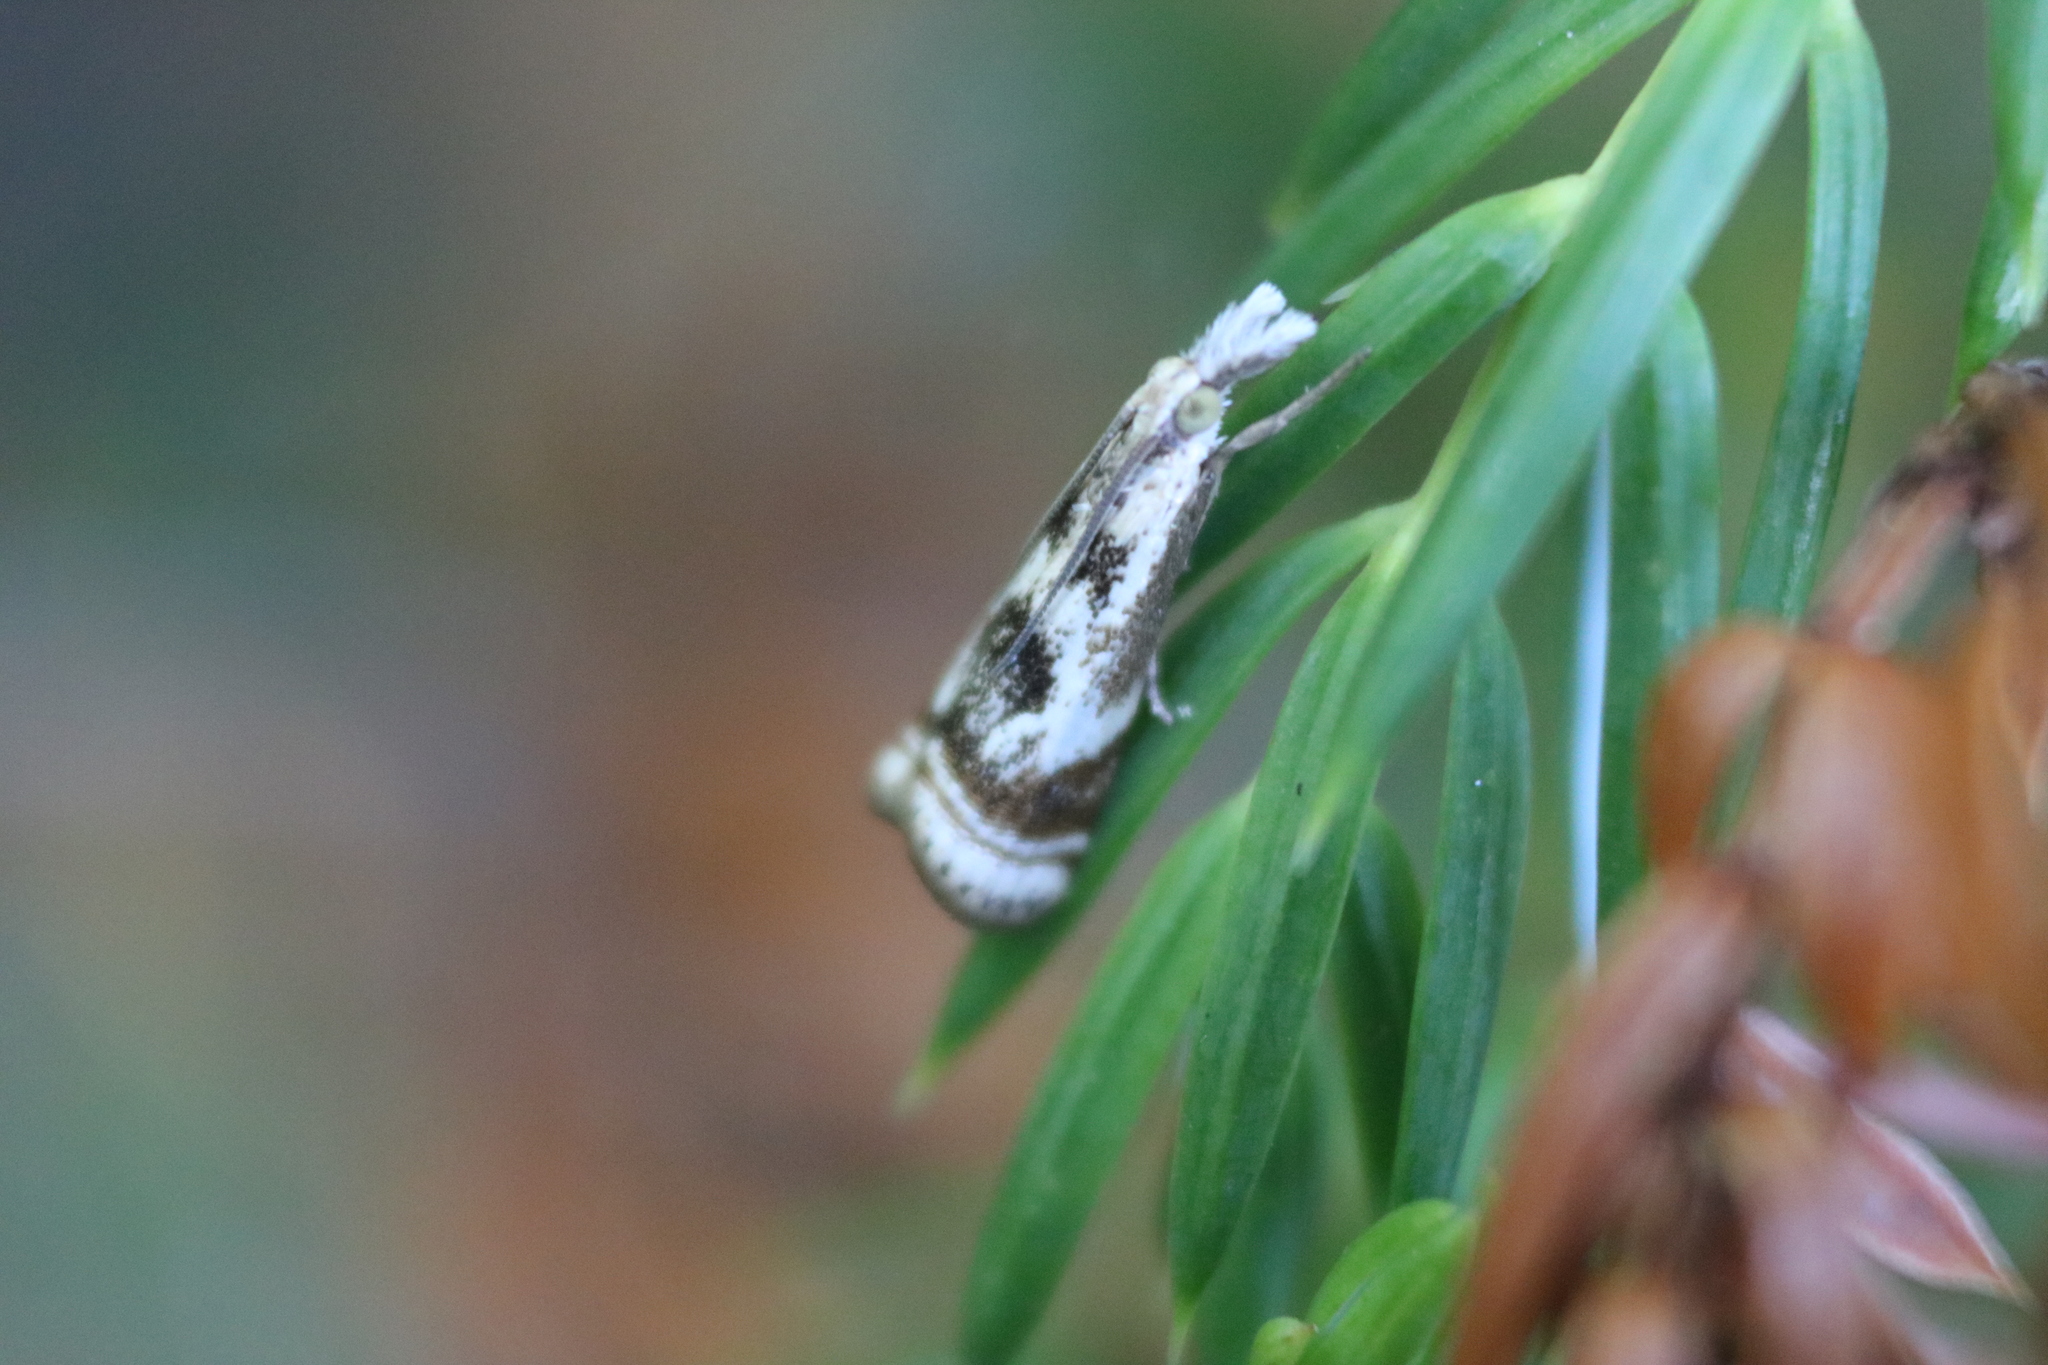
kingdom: Animalia
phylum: Arthropoda
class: Insecta
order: Lepidoptera
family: Crambidae
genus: Microcrambus
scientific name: Microcrambus elegans
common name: Elegant grass-veneer
